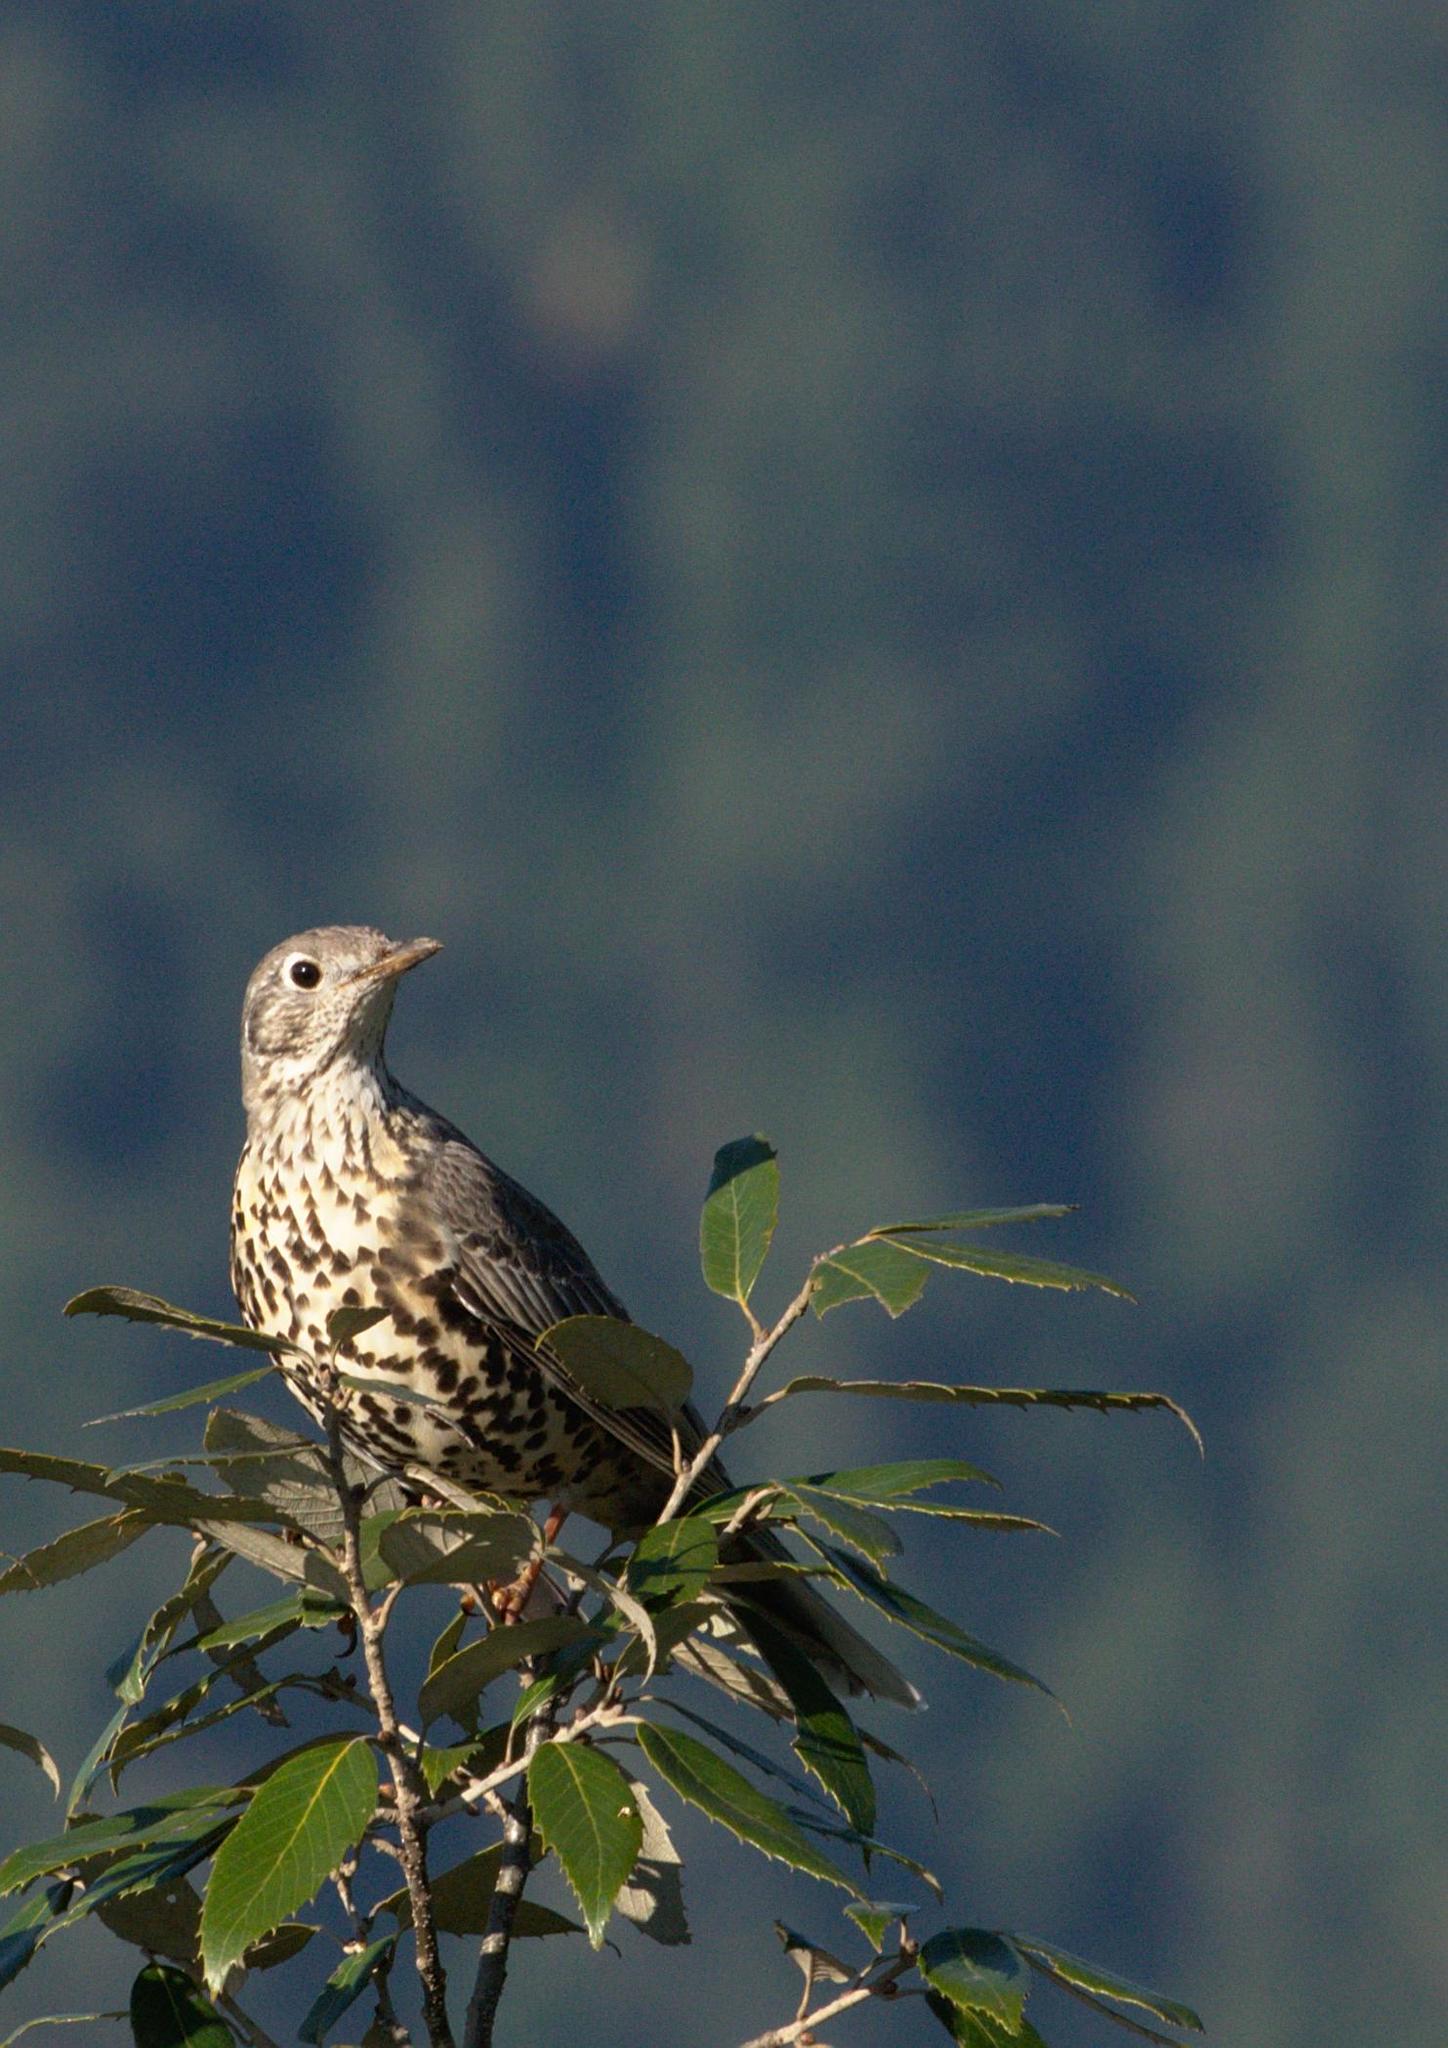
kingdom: Animalia
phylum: Chordata
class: Aves
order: Passeriformes
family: Turdidae
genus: Turdus
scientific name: Turdus viscivorus
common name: Mistle thrush
